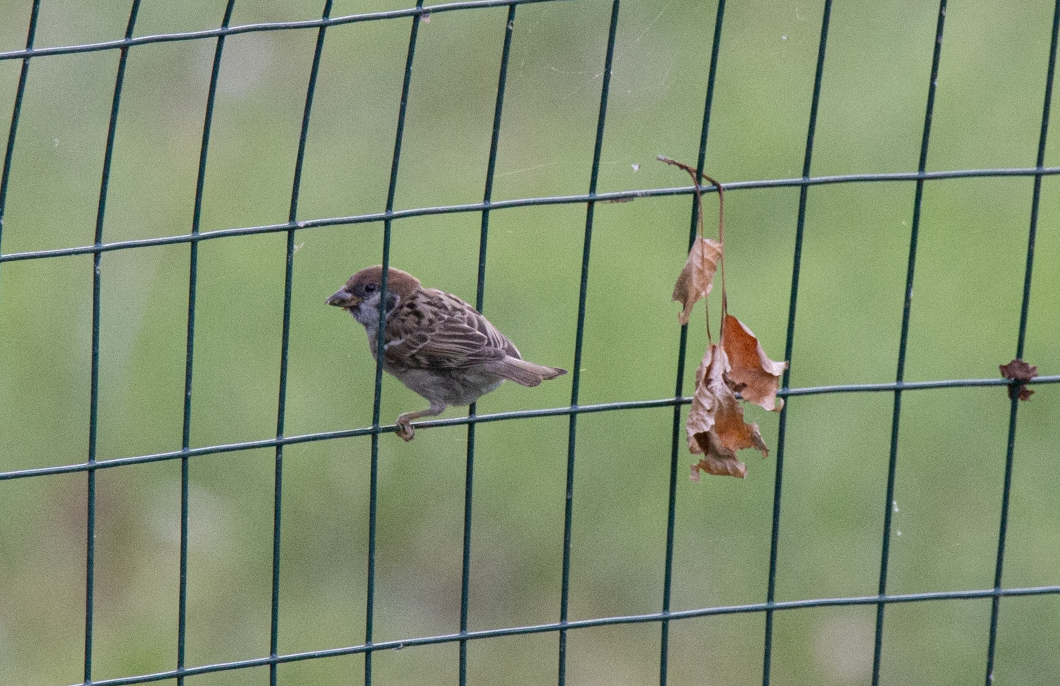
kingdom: Animalia
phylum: Chordata
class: Aves
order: Passeriformes
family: Passeridae
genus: Passer
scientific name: Passer montanus
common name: Eurasian tree sparrow
